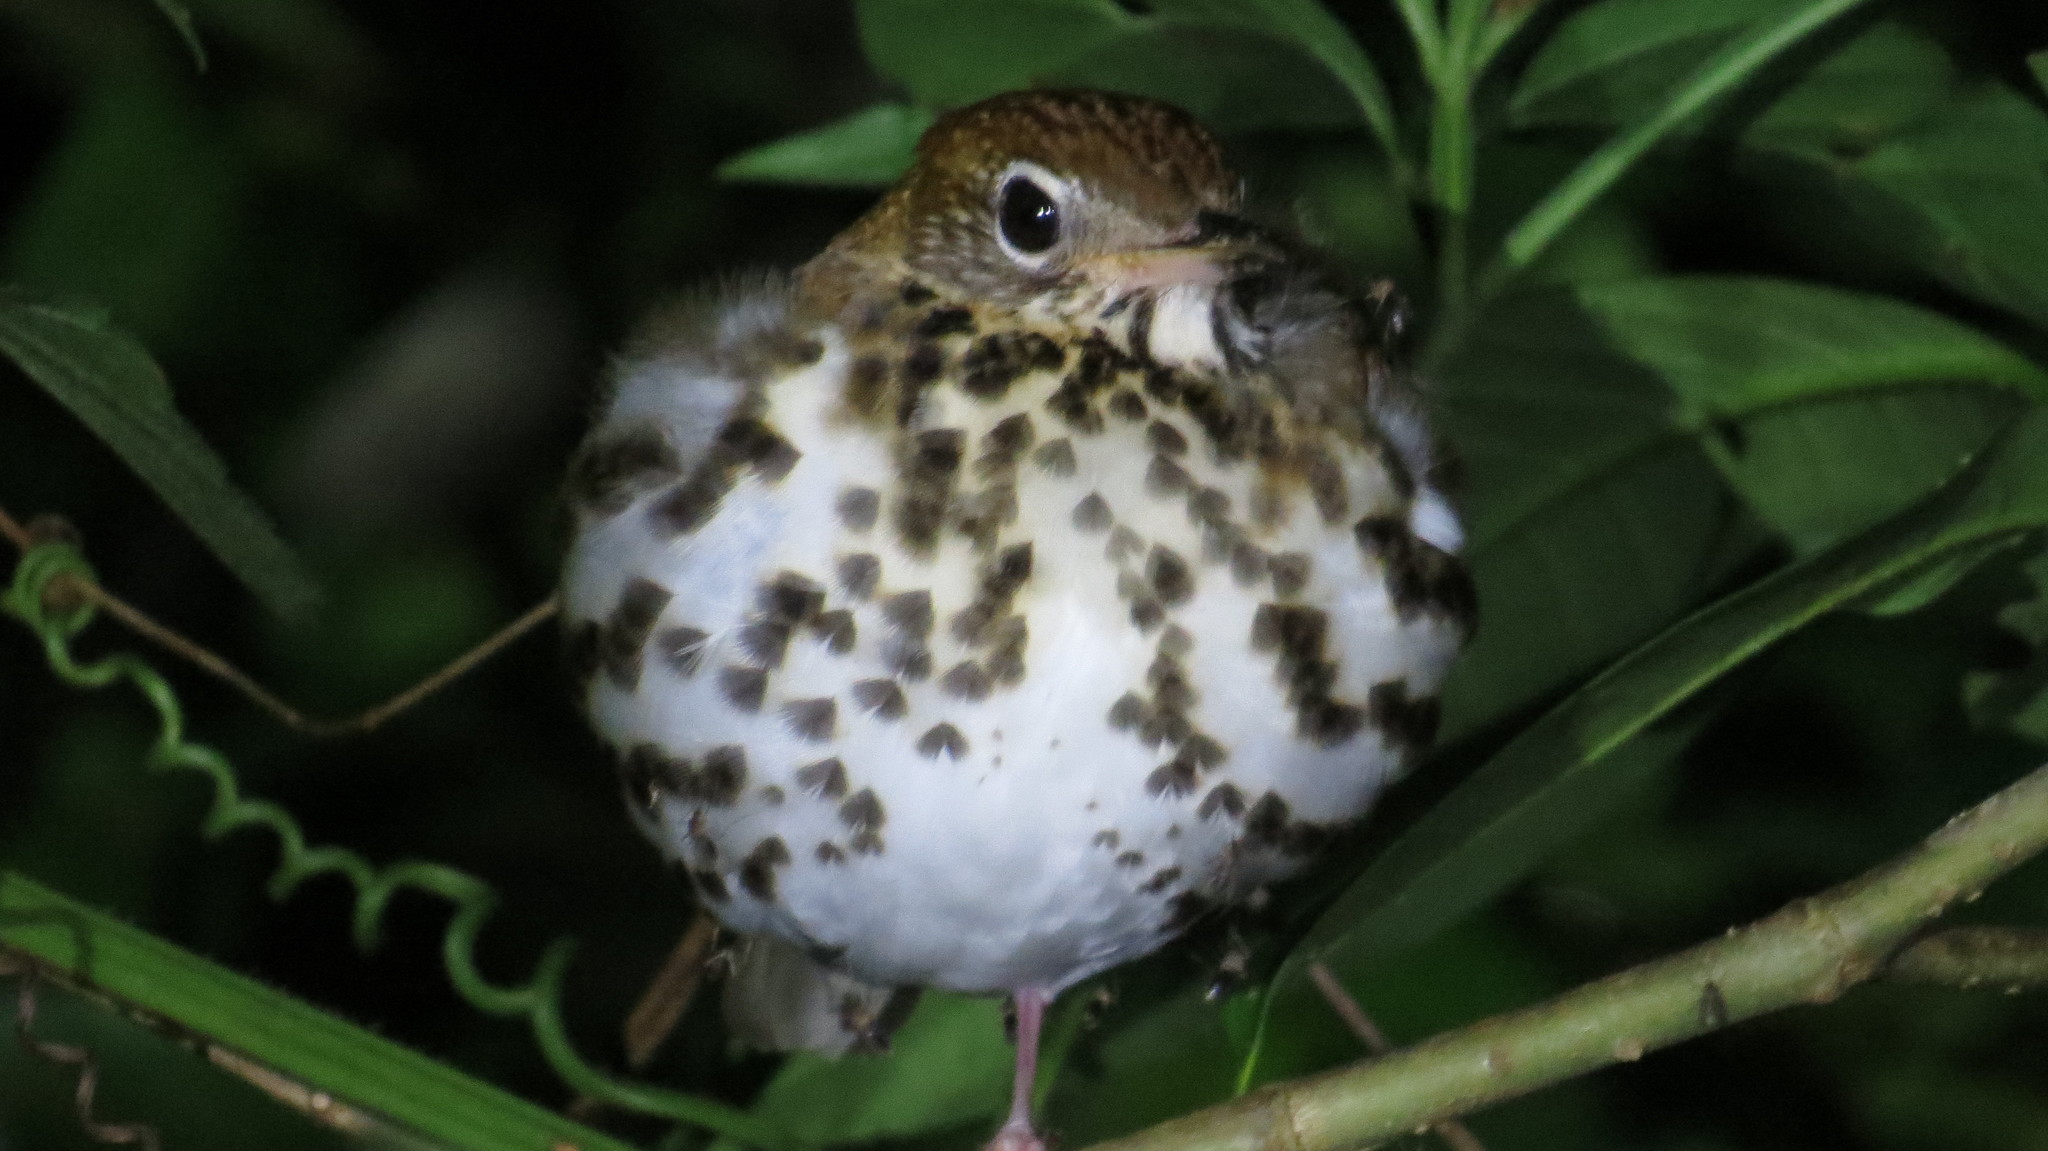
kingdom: Animalia
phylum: Chordata
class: Aves
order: Passeriformes
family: Turdidae
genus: Hylocichla
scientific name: Hylocichla mustelina
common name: Wood thrush
